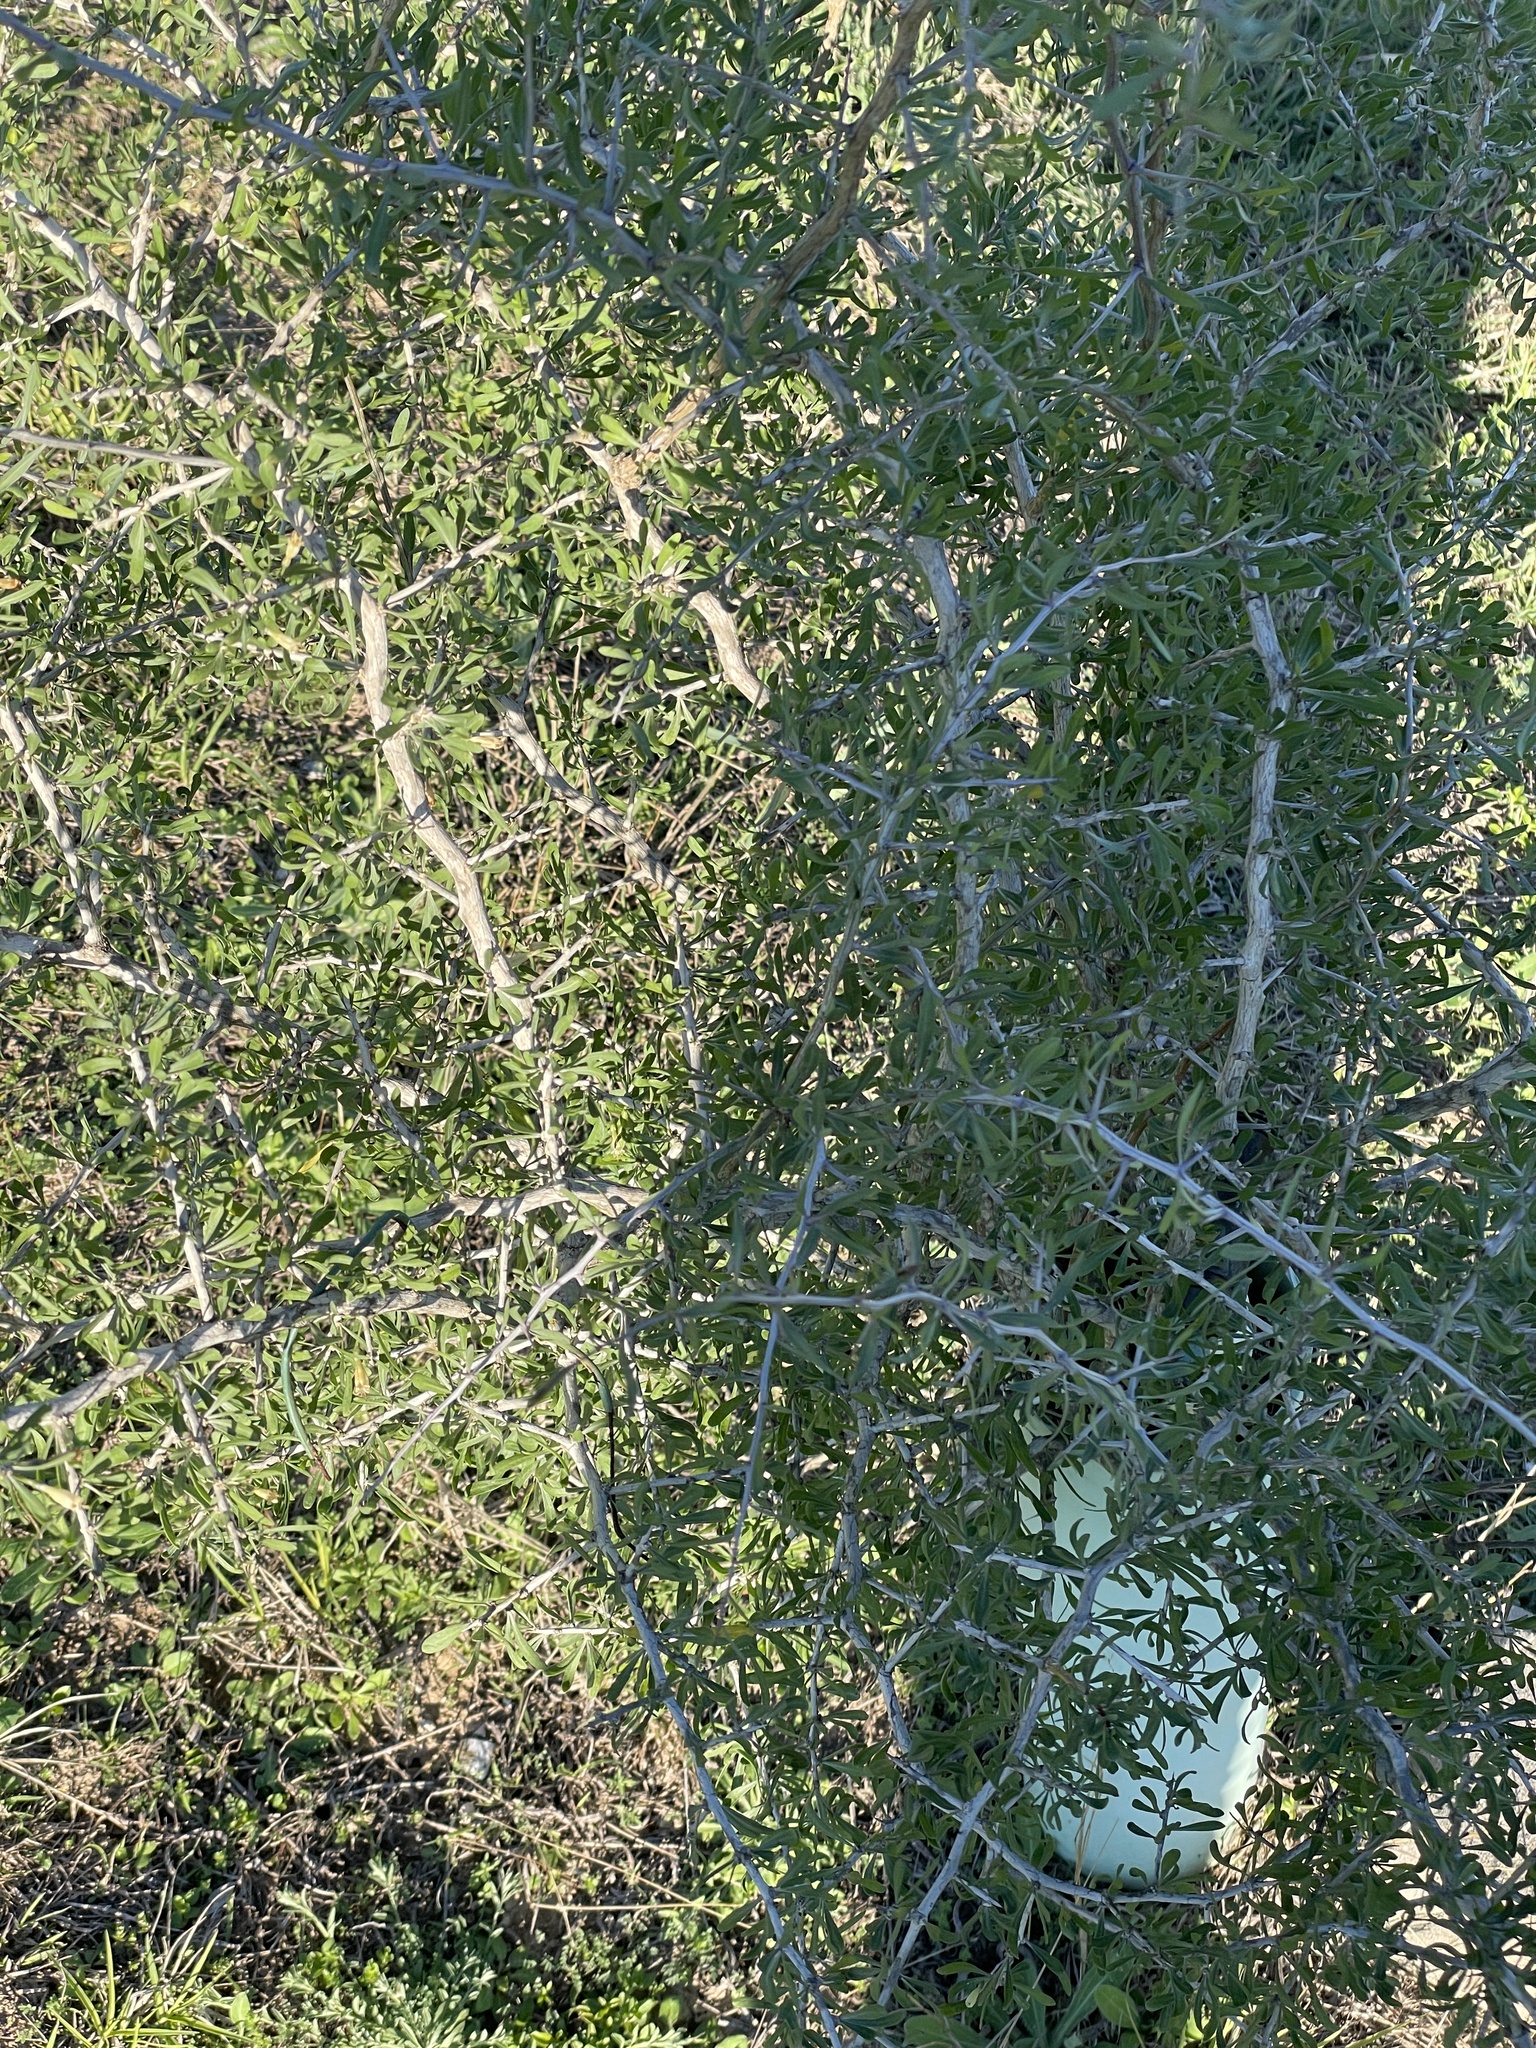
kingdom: Plantae
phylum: Tracheophyta
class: Magnoliopsida
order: Solanales
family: Solanaceae
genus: Lycium
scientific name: Lycium berlandieri
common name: Berlandier wolfberry
